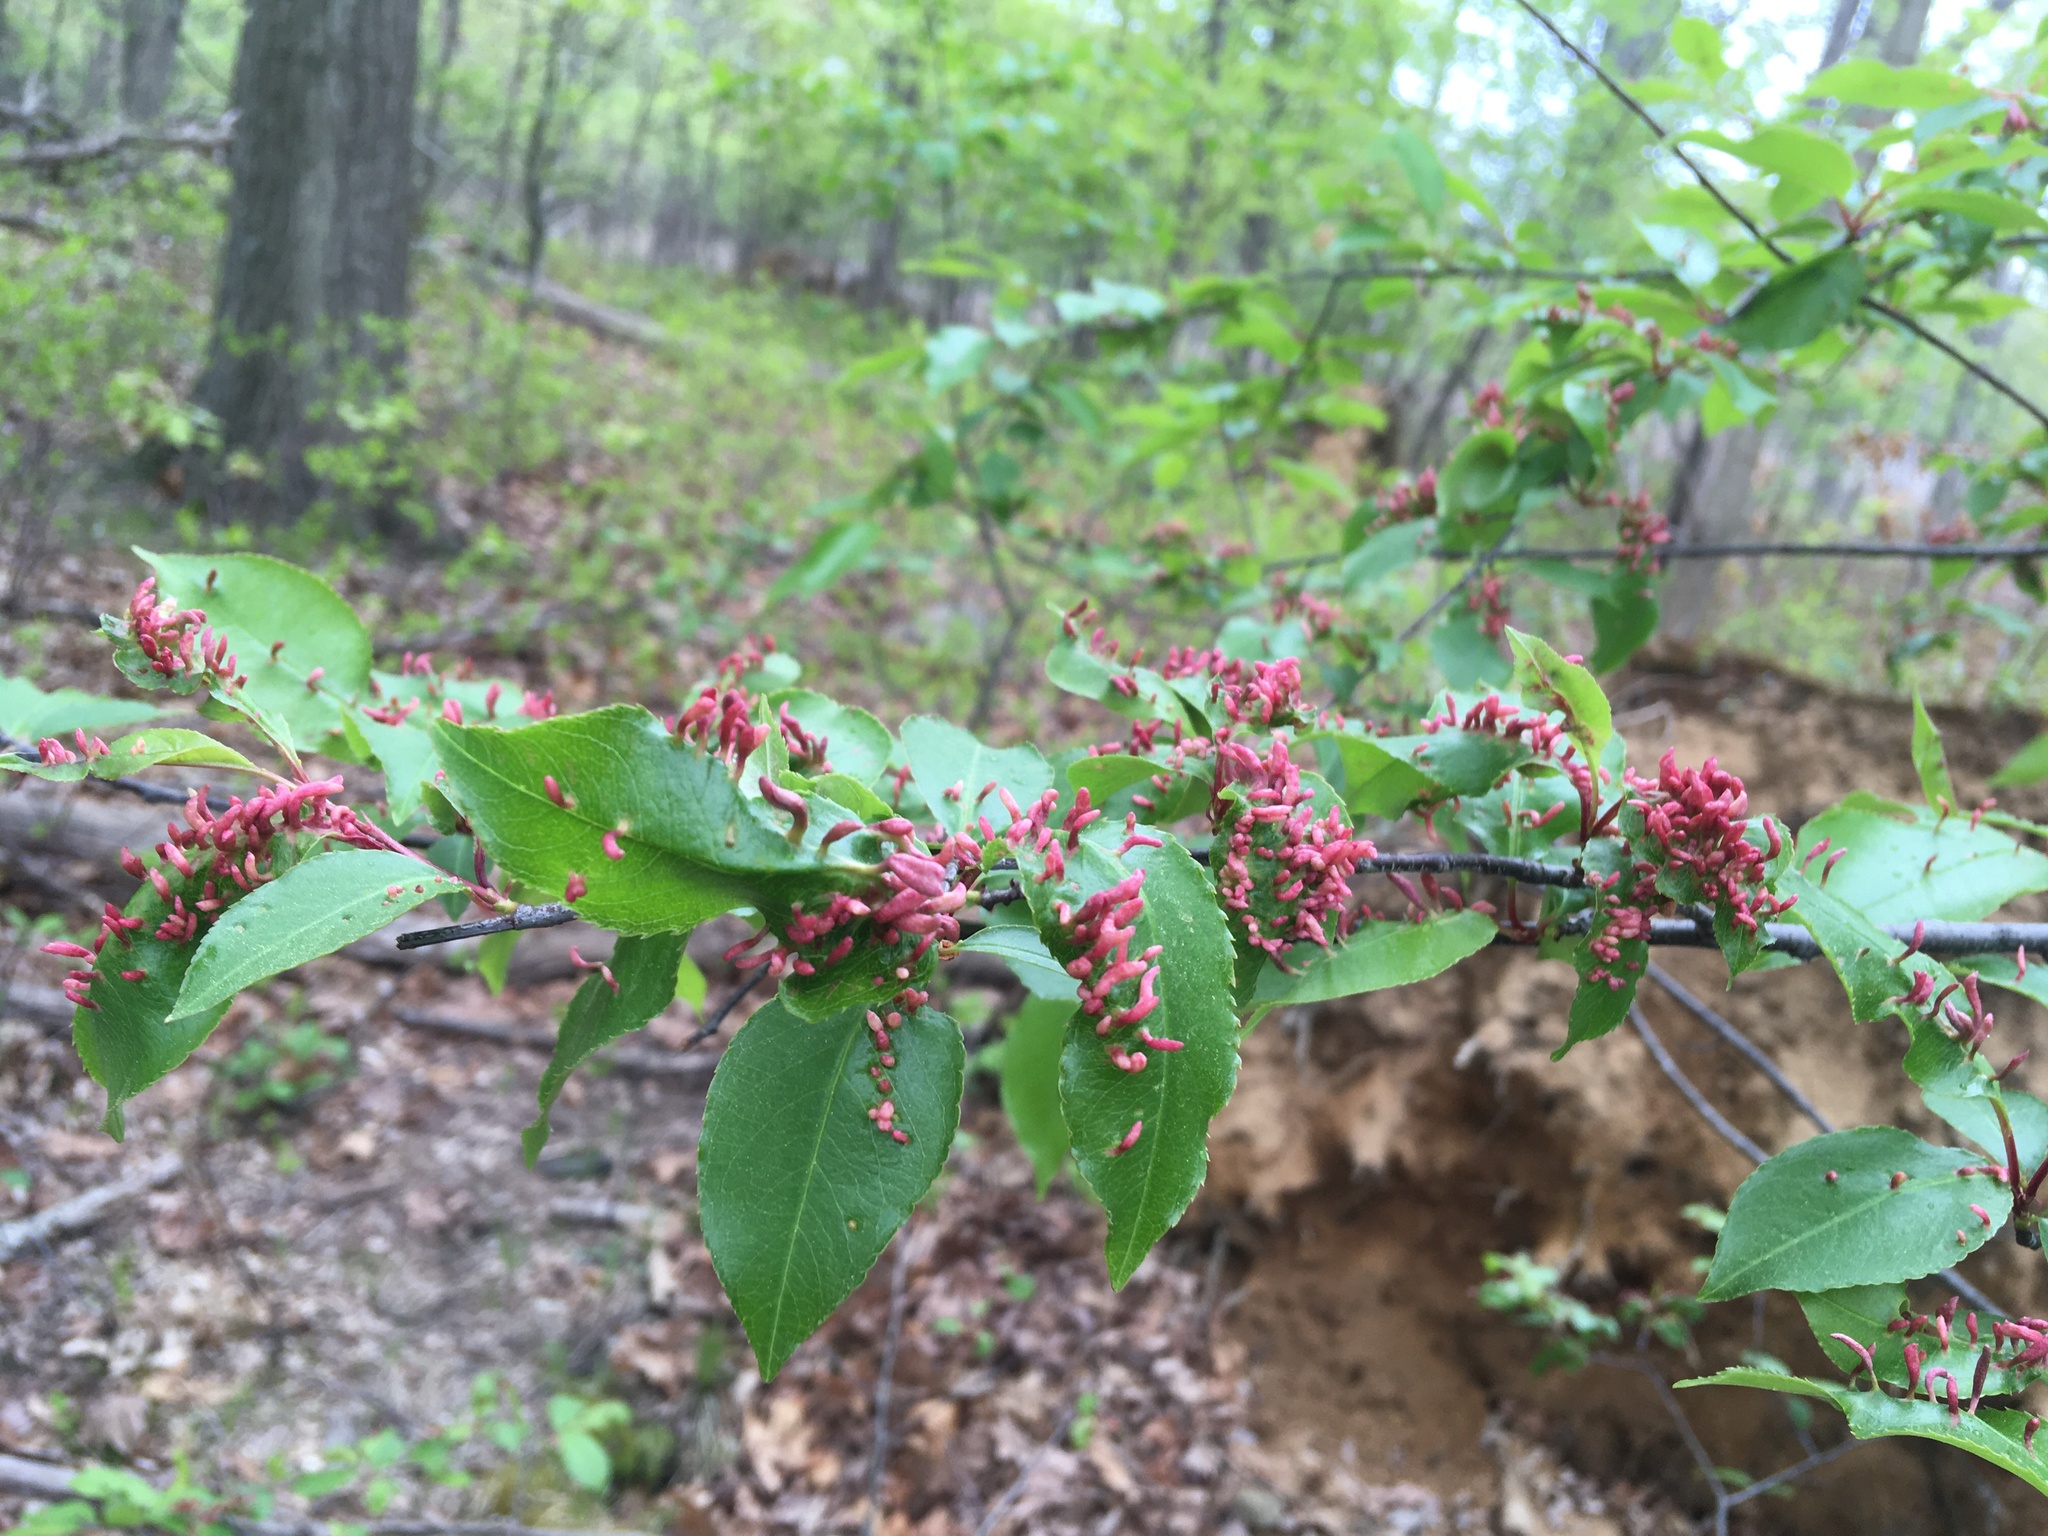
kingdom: Animalia
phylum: Arthropoda
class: Arachnida
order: Trombidiformes
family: Eriophyidae
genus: Eriophyes
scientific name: Eriophyes
